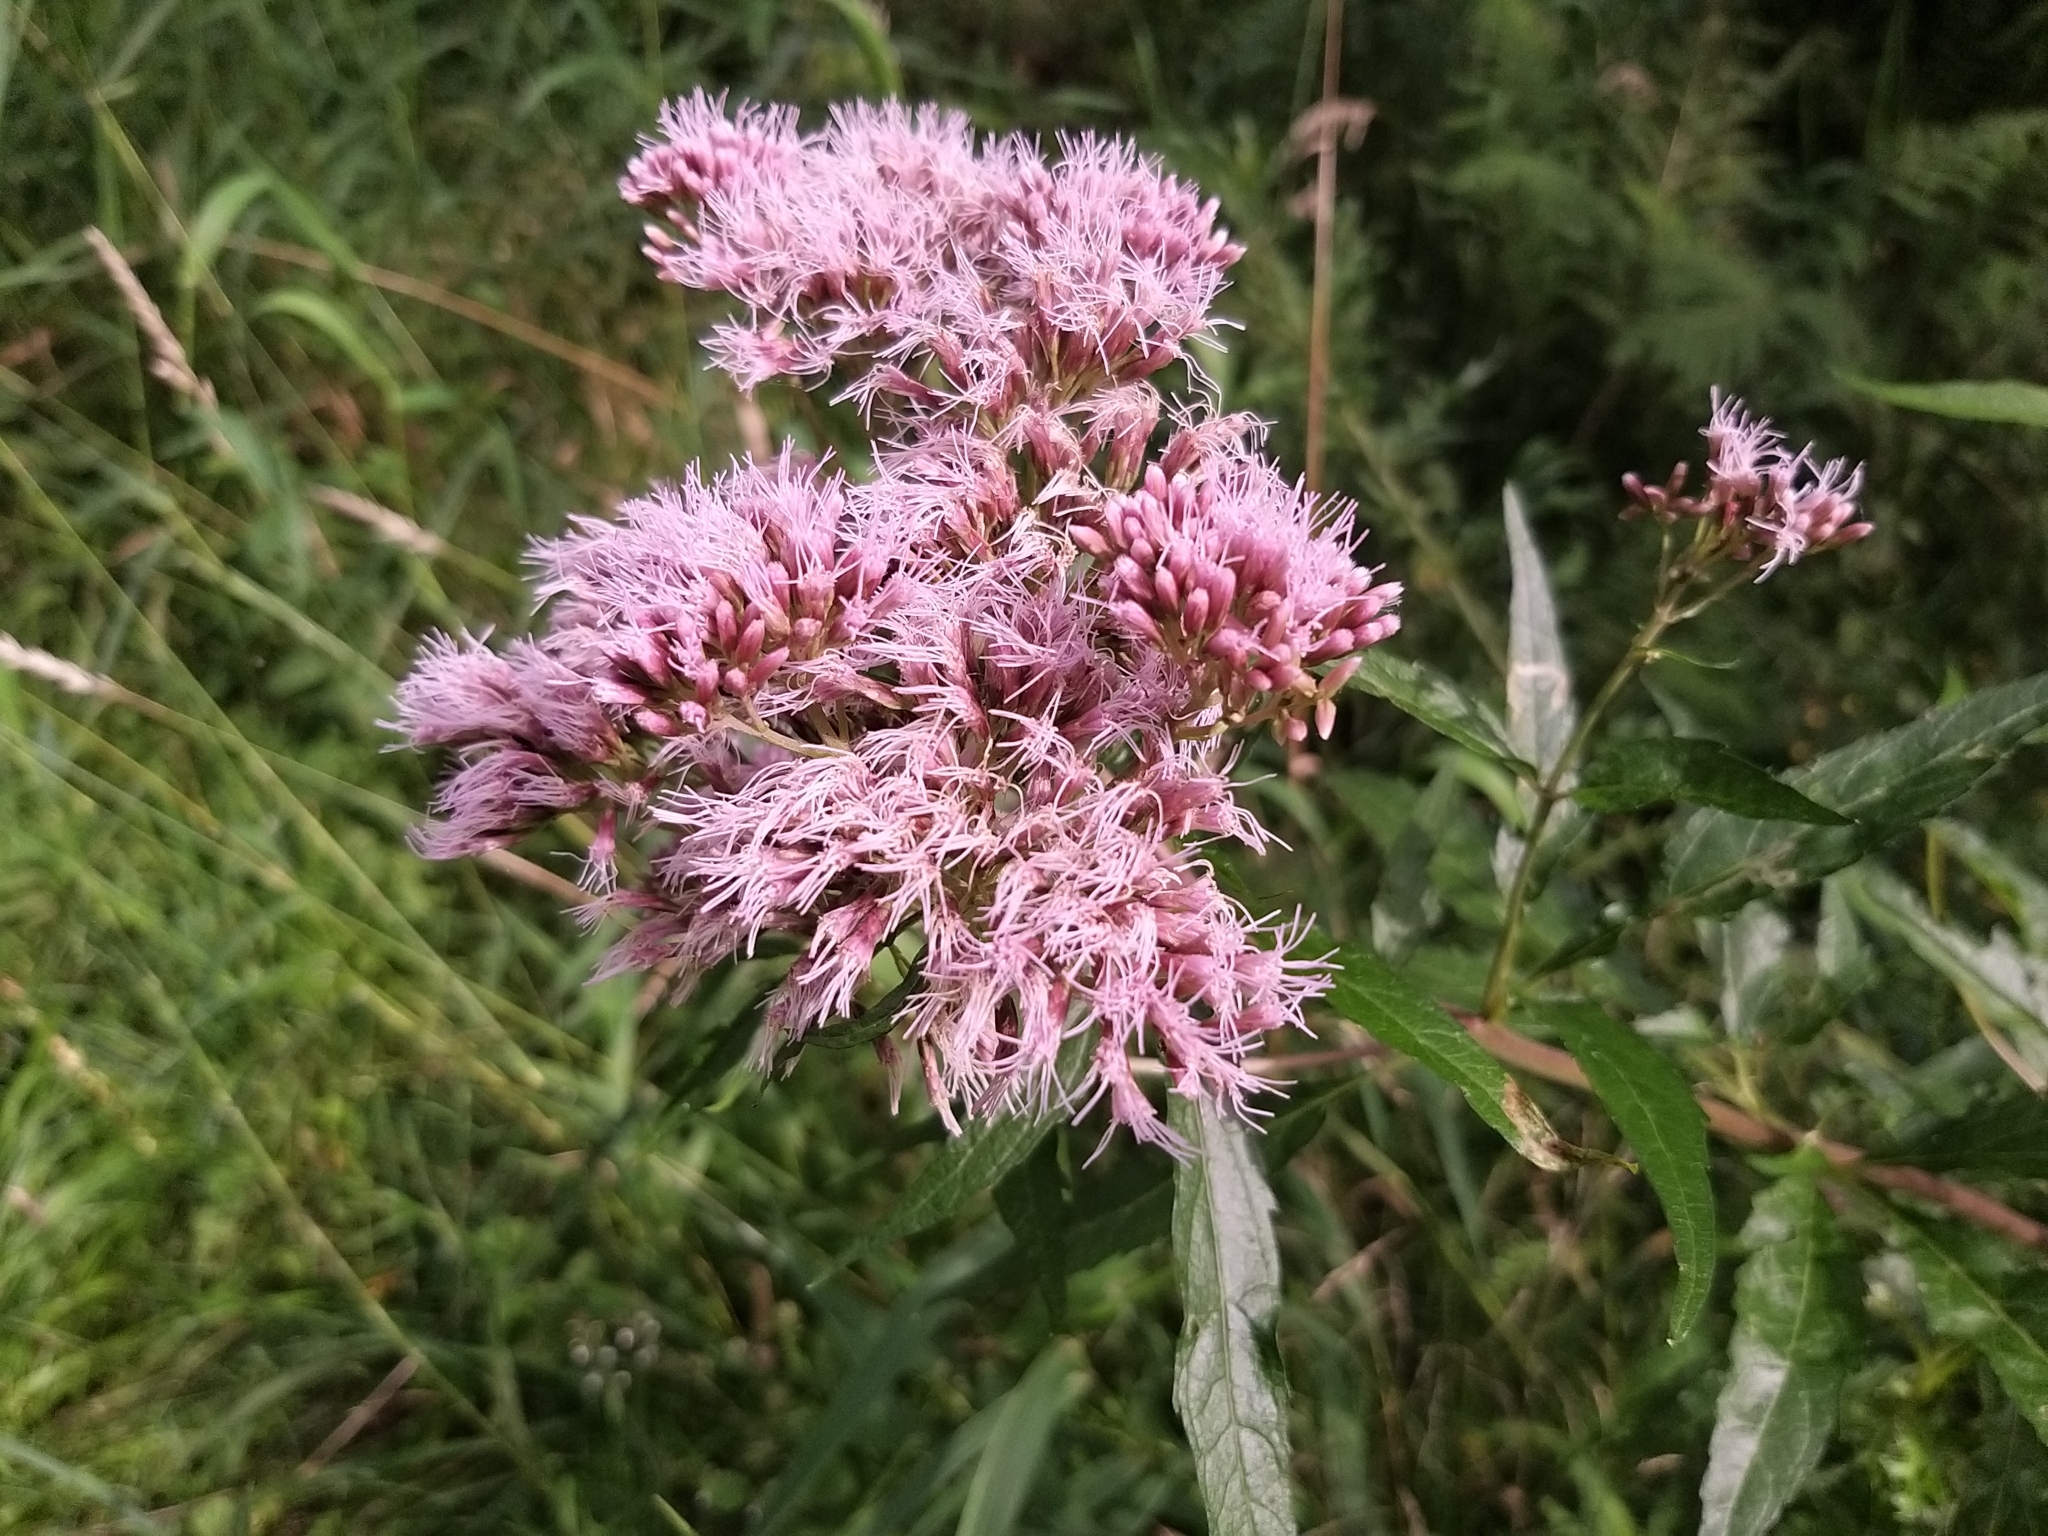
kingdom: Plantae
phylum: Tracheophyta
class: Magnoliopsida
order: Asterales
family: Asteraceae
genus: Eupatorium
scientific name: Eupatorium cannabinum
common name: Hemp-agrimony
